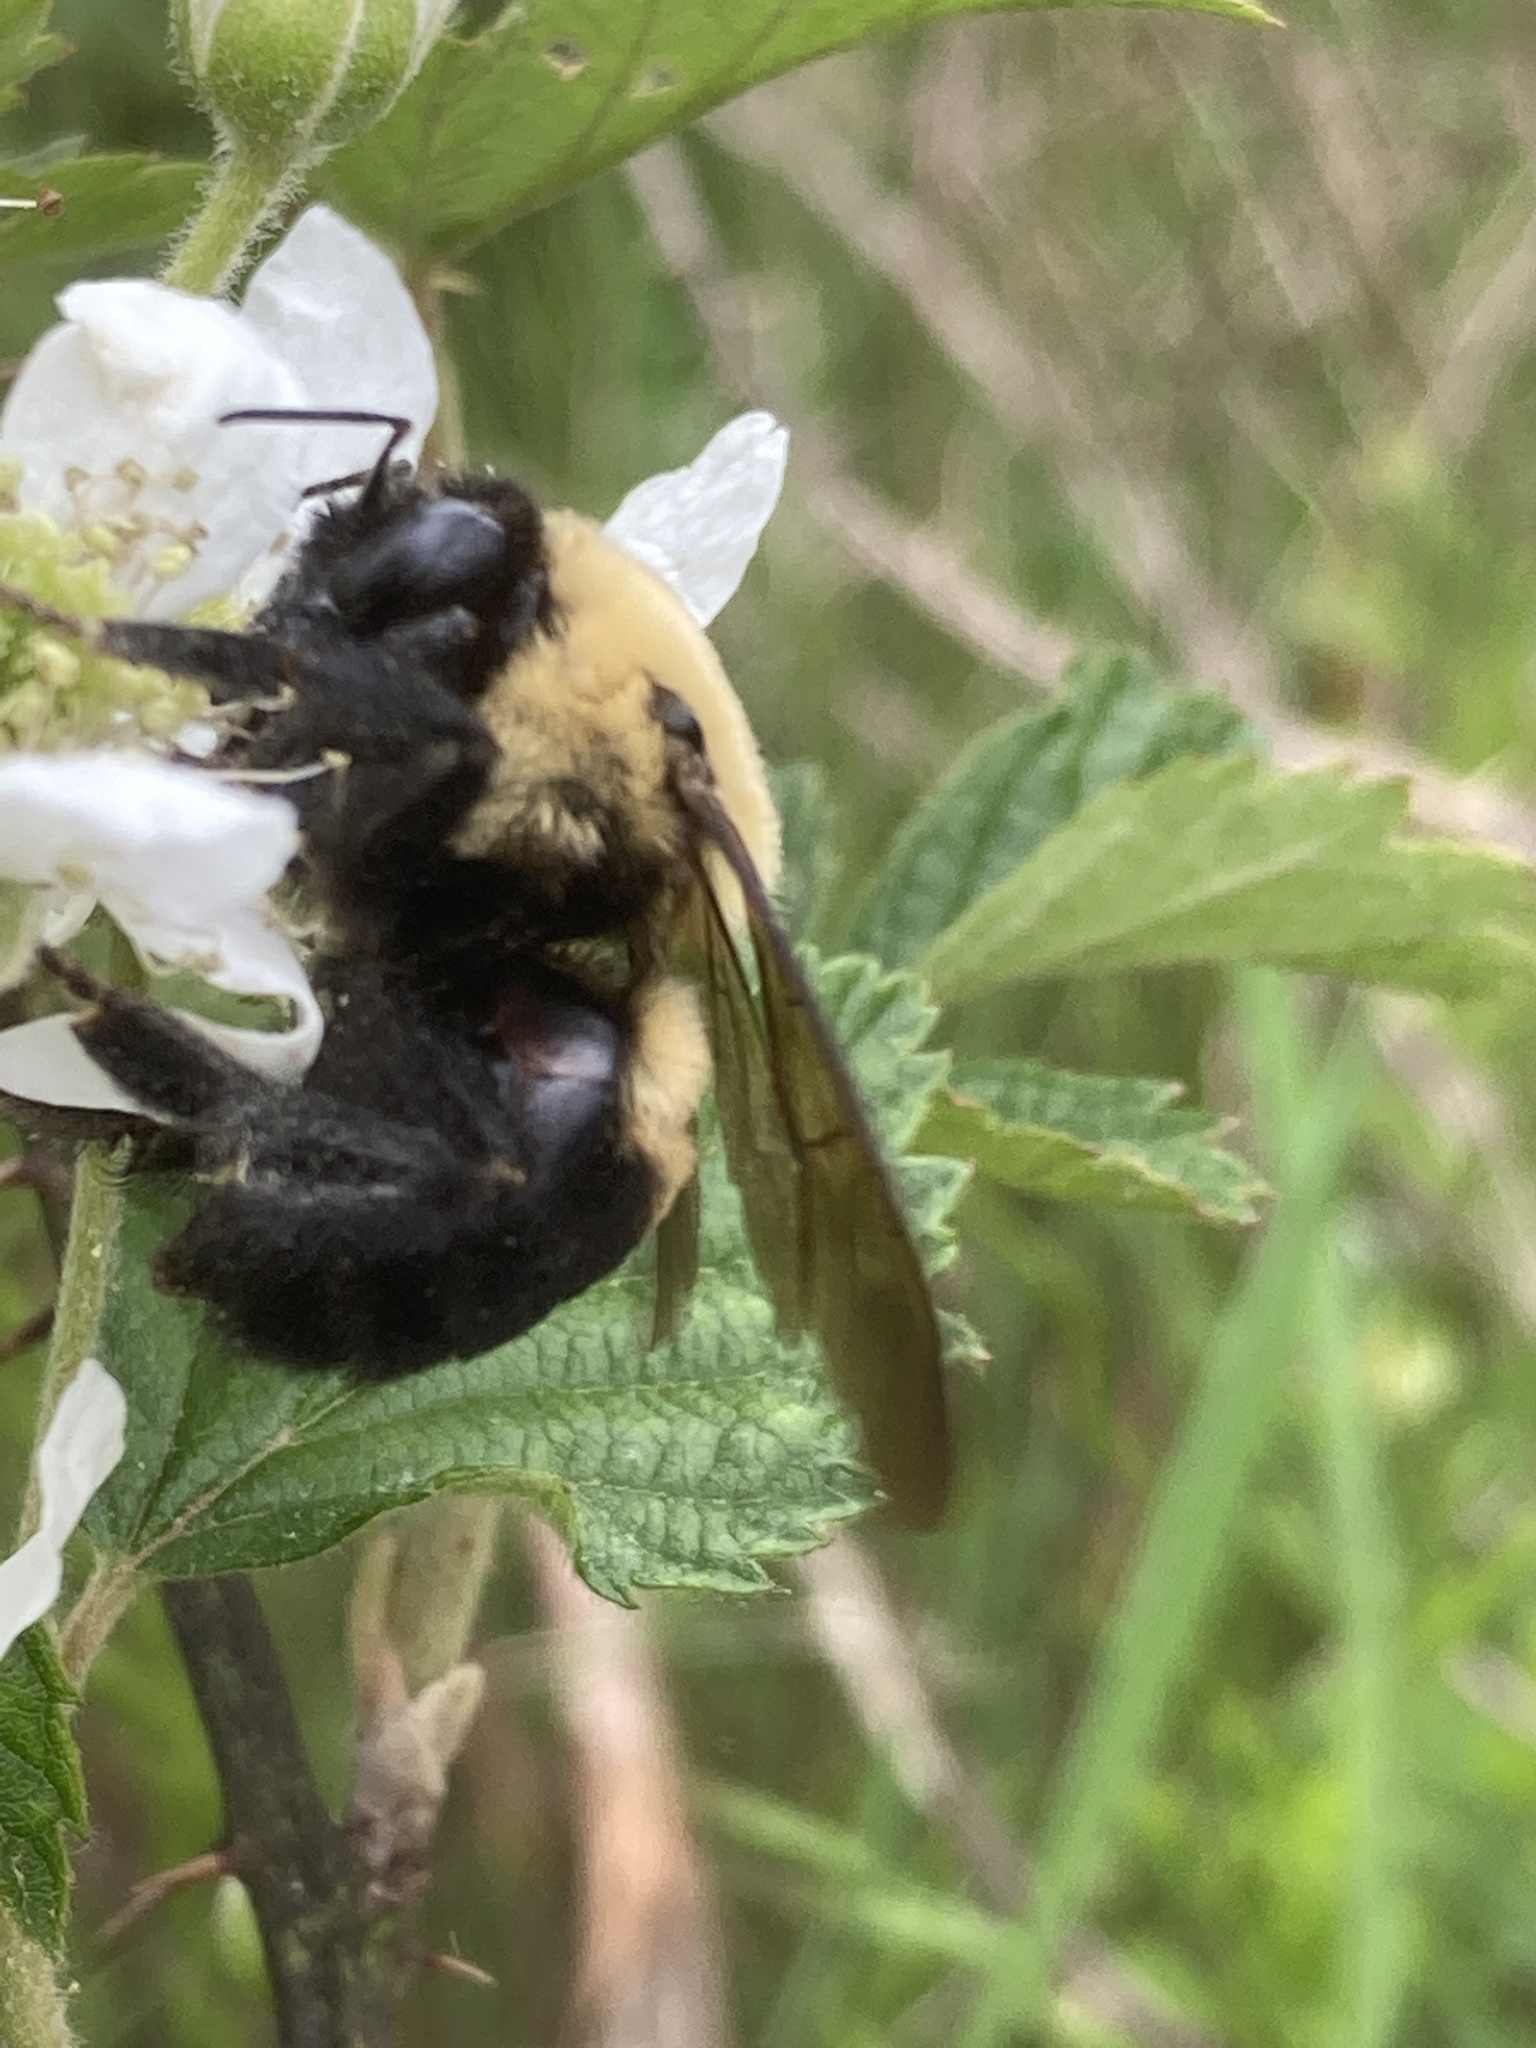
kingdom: Animalia
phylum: Arthropoda
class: Insecta
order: Hymenoptera
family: Apidae
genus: Bombus
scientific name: Bombus griseocollis
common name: Brown-belted bumble bee
